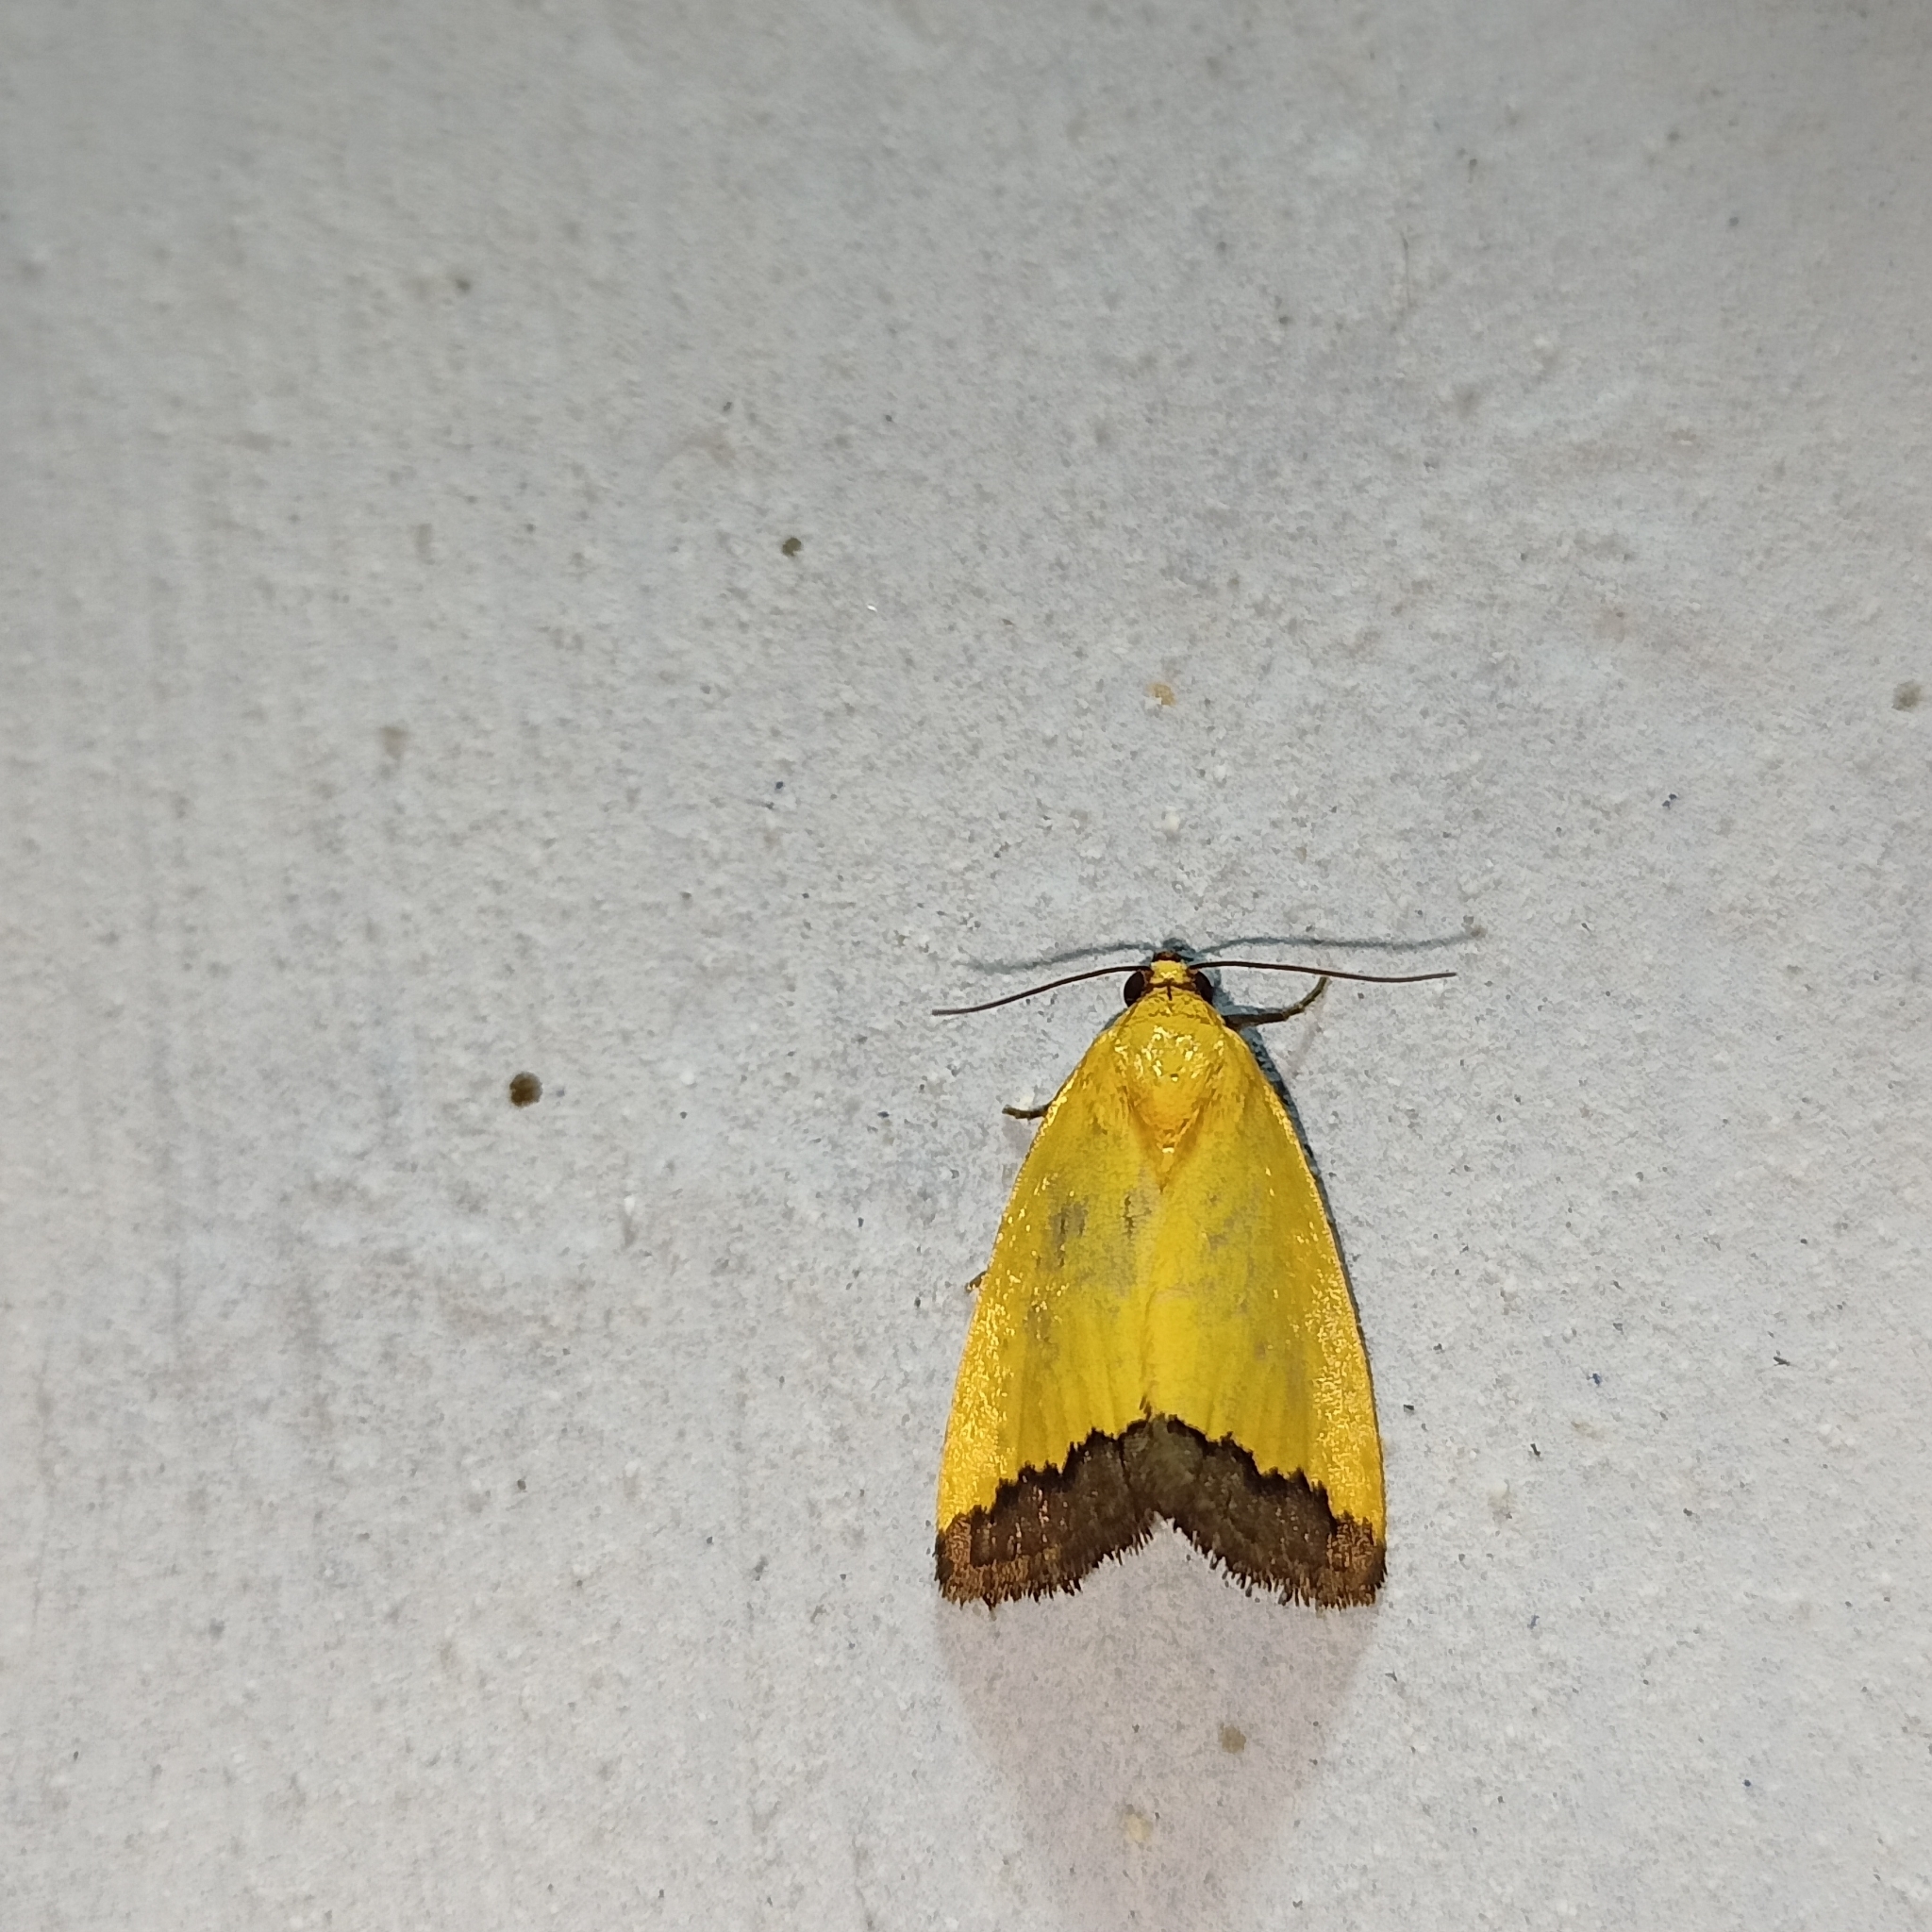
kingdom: Animalia
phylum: Arthropoda
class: Insecta
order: Lepidoptera
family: Noctuidae
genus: Eustrotia
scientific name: Eustrotia marginata
